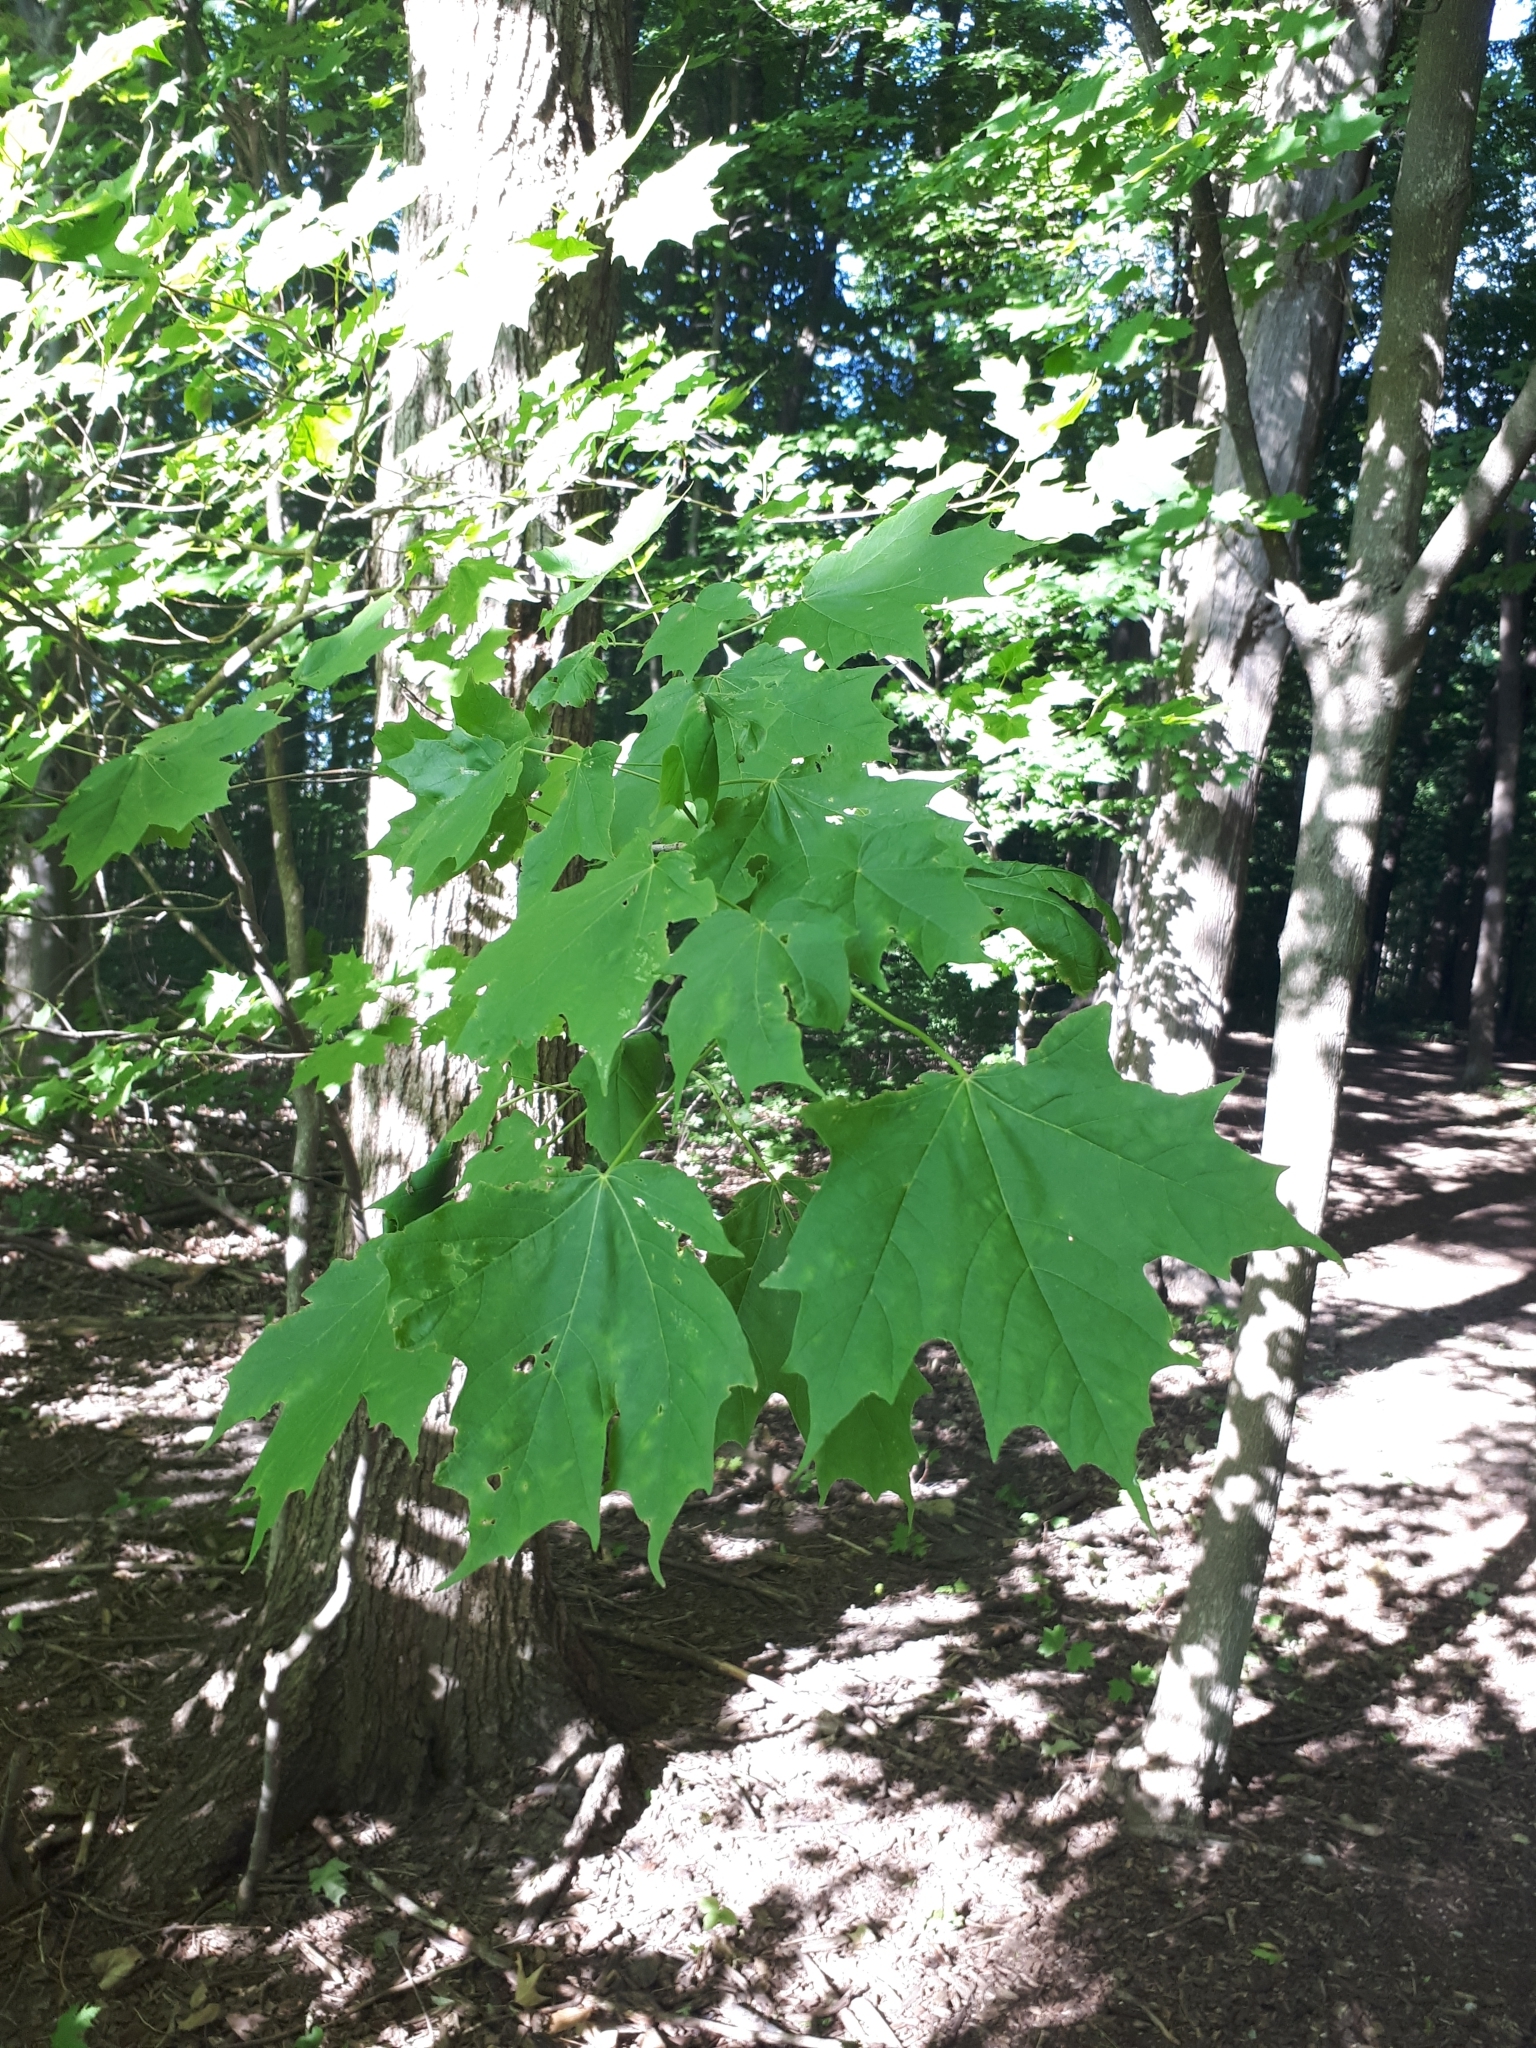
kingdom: Plantae
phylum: Tracheophyta
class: Magnoliopsida
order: Sapindales
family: Sapindaceae
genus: Acer
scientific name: Acer platanoides
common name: Norway maple
